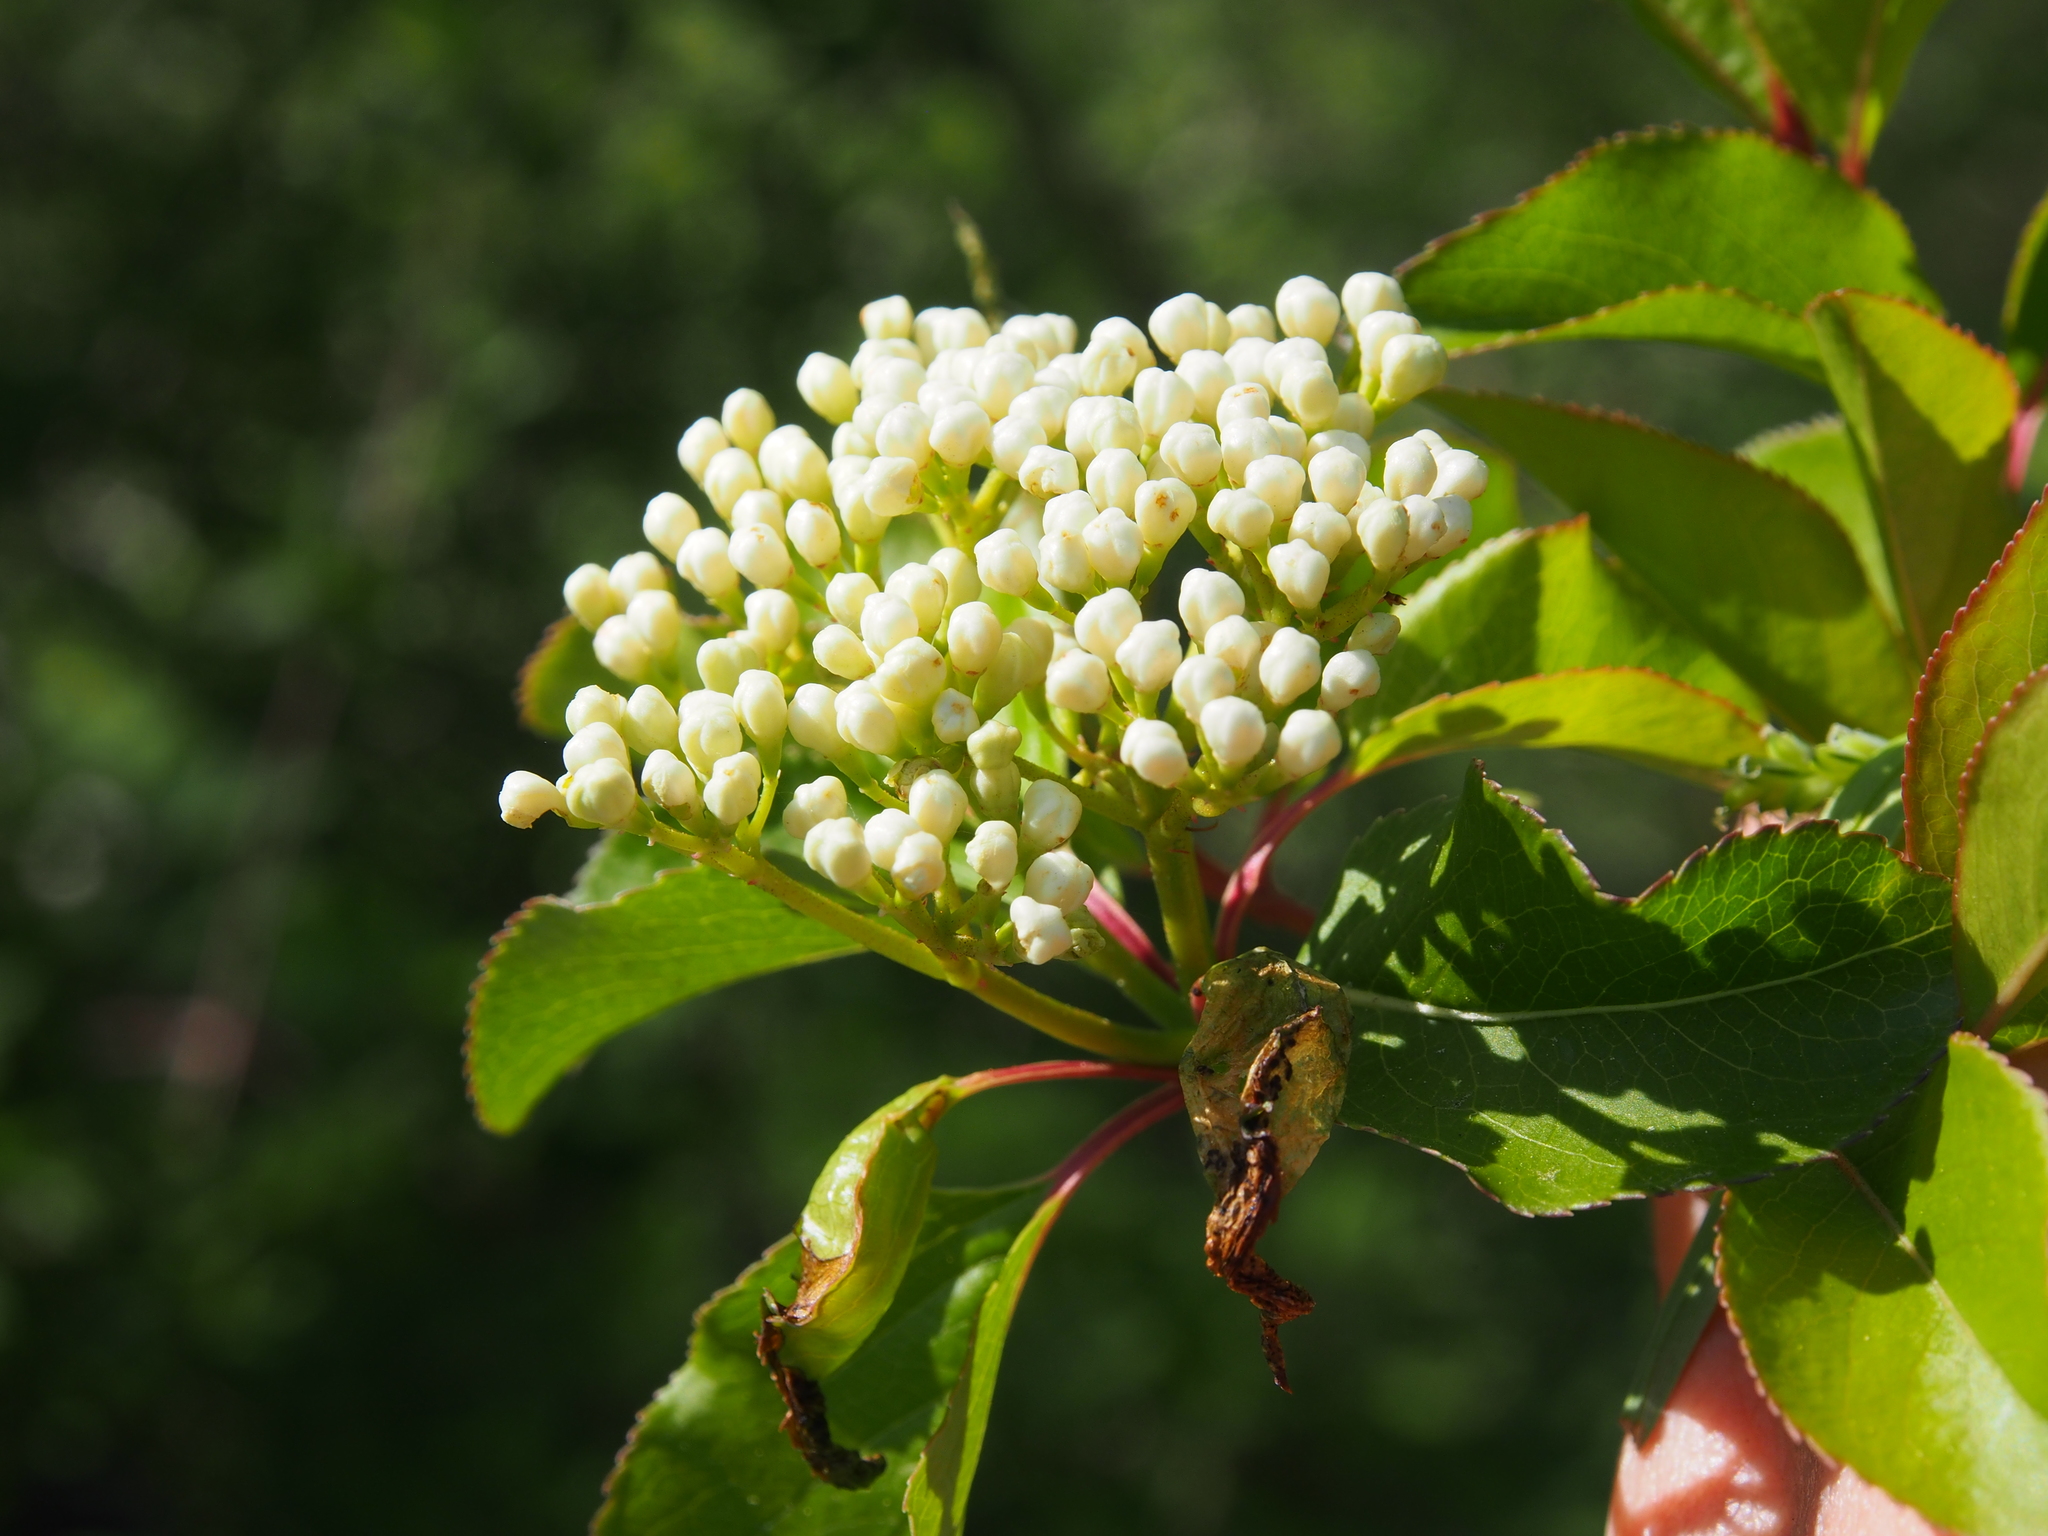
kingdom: Plantae
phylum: Tracheophyta
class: Magnoliopsida
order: Dipsacales
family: Viburnaceae
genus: Viburnum
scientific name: Viburnum prunifolium
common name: Black haw
